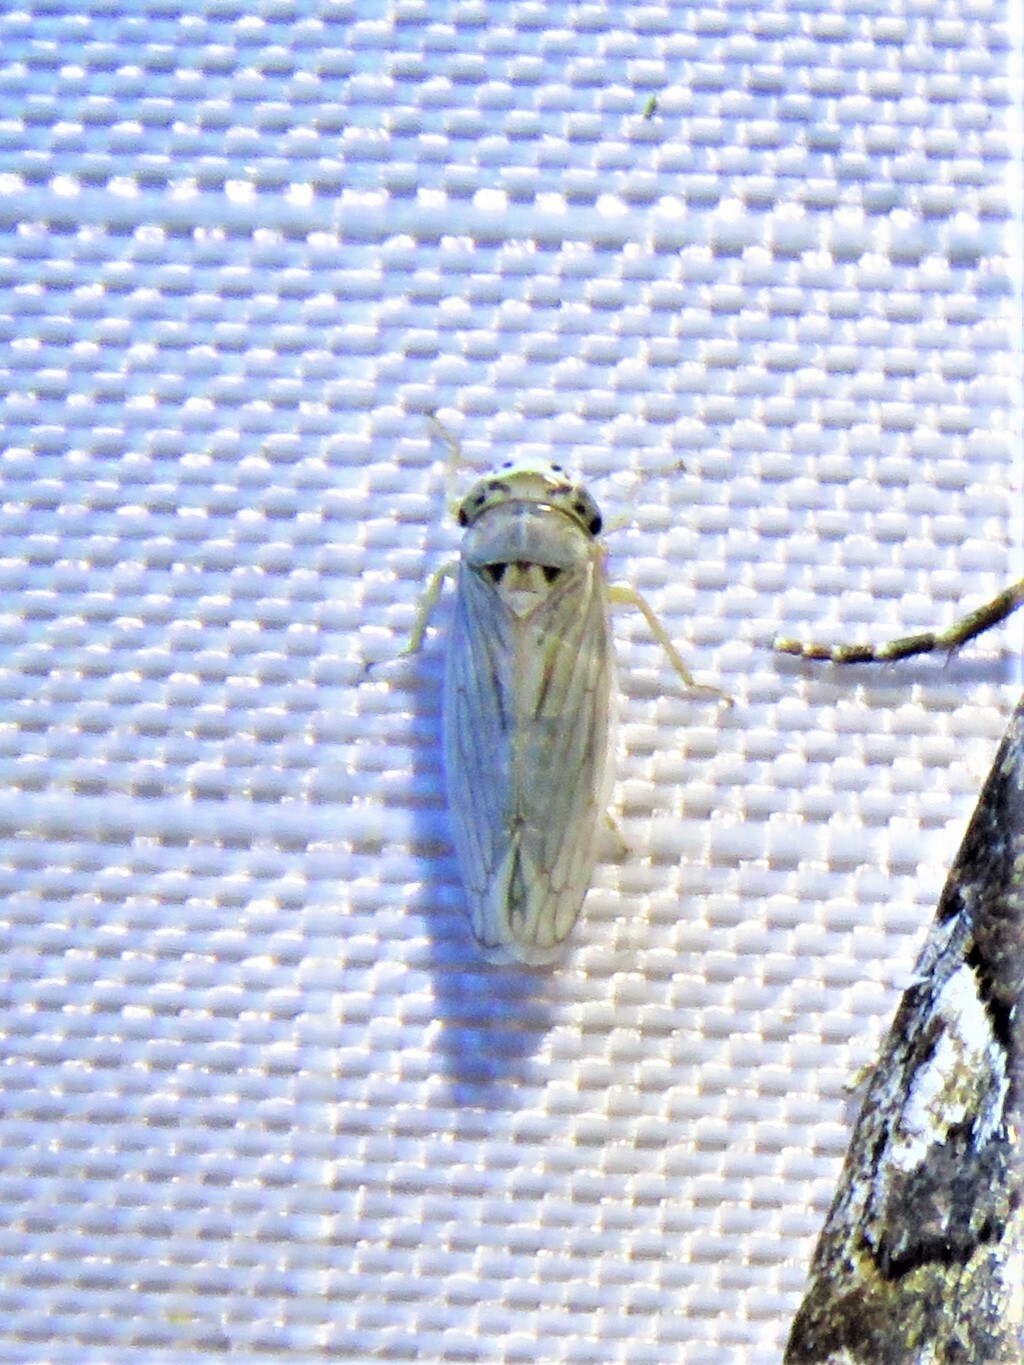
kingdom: Animalia
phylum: Arthropoda
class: Insecta
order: Hemiptera
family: Cicadellidae
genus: Exitianus
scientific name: Exitianus exitiosus
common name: Gray lawn leafhopper
